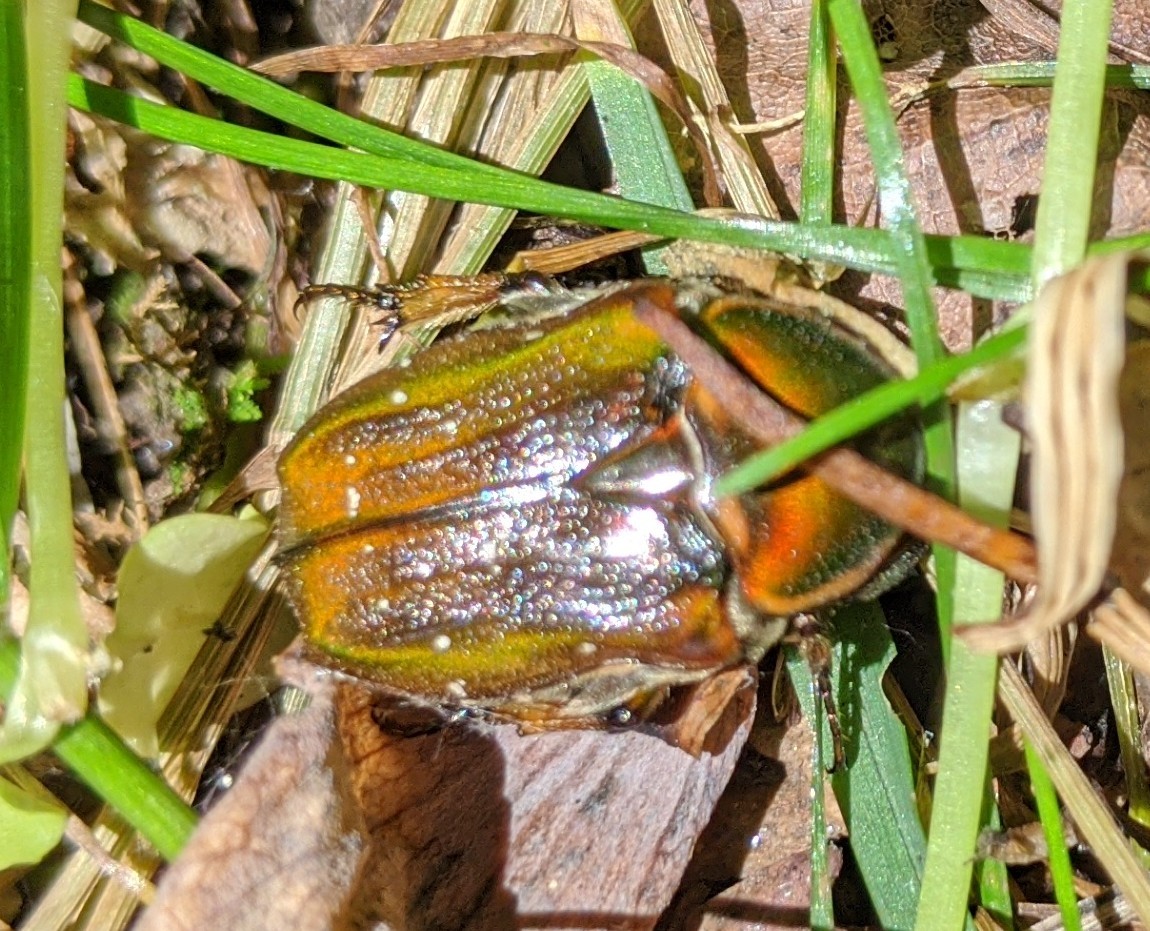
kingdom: Animalia
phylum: Arthropoda
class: Insecta
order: Coleoptera
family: Scarabaeidae
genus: Euphoria
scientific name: Euphoria fulgida
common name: Emerald euphoria
